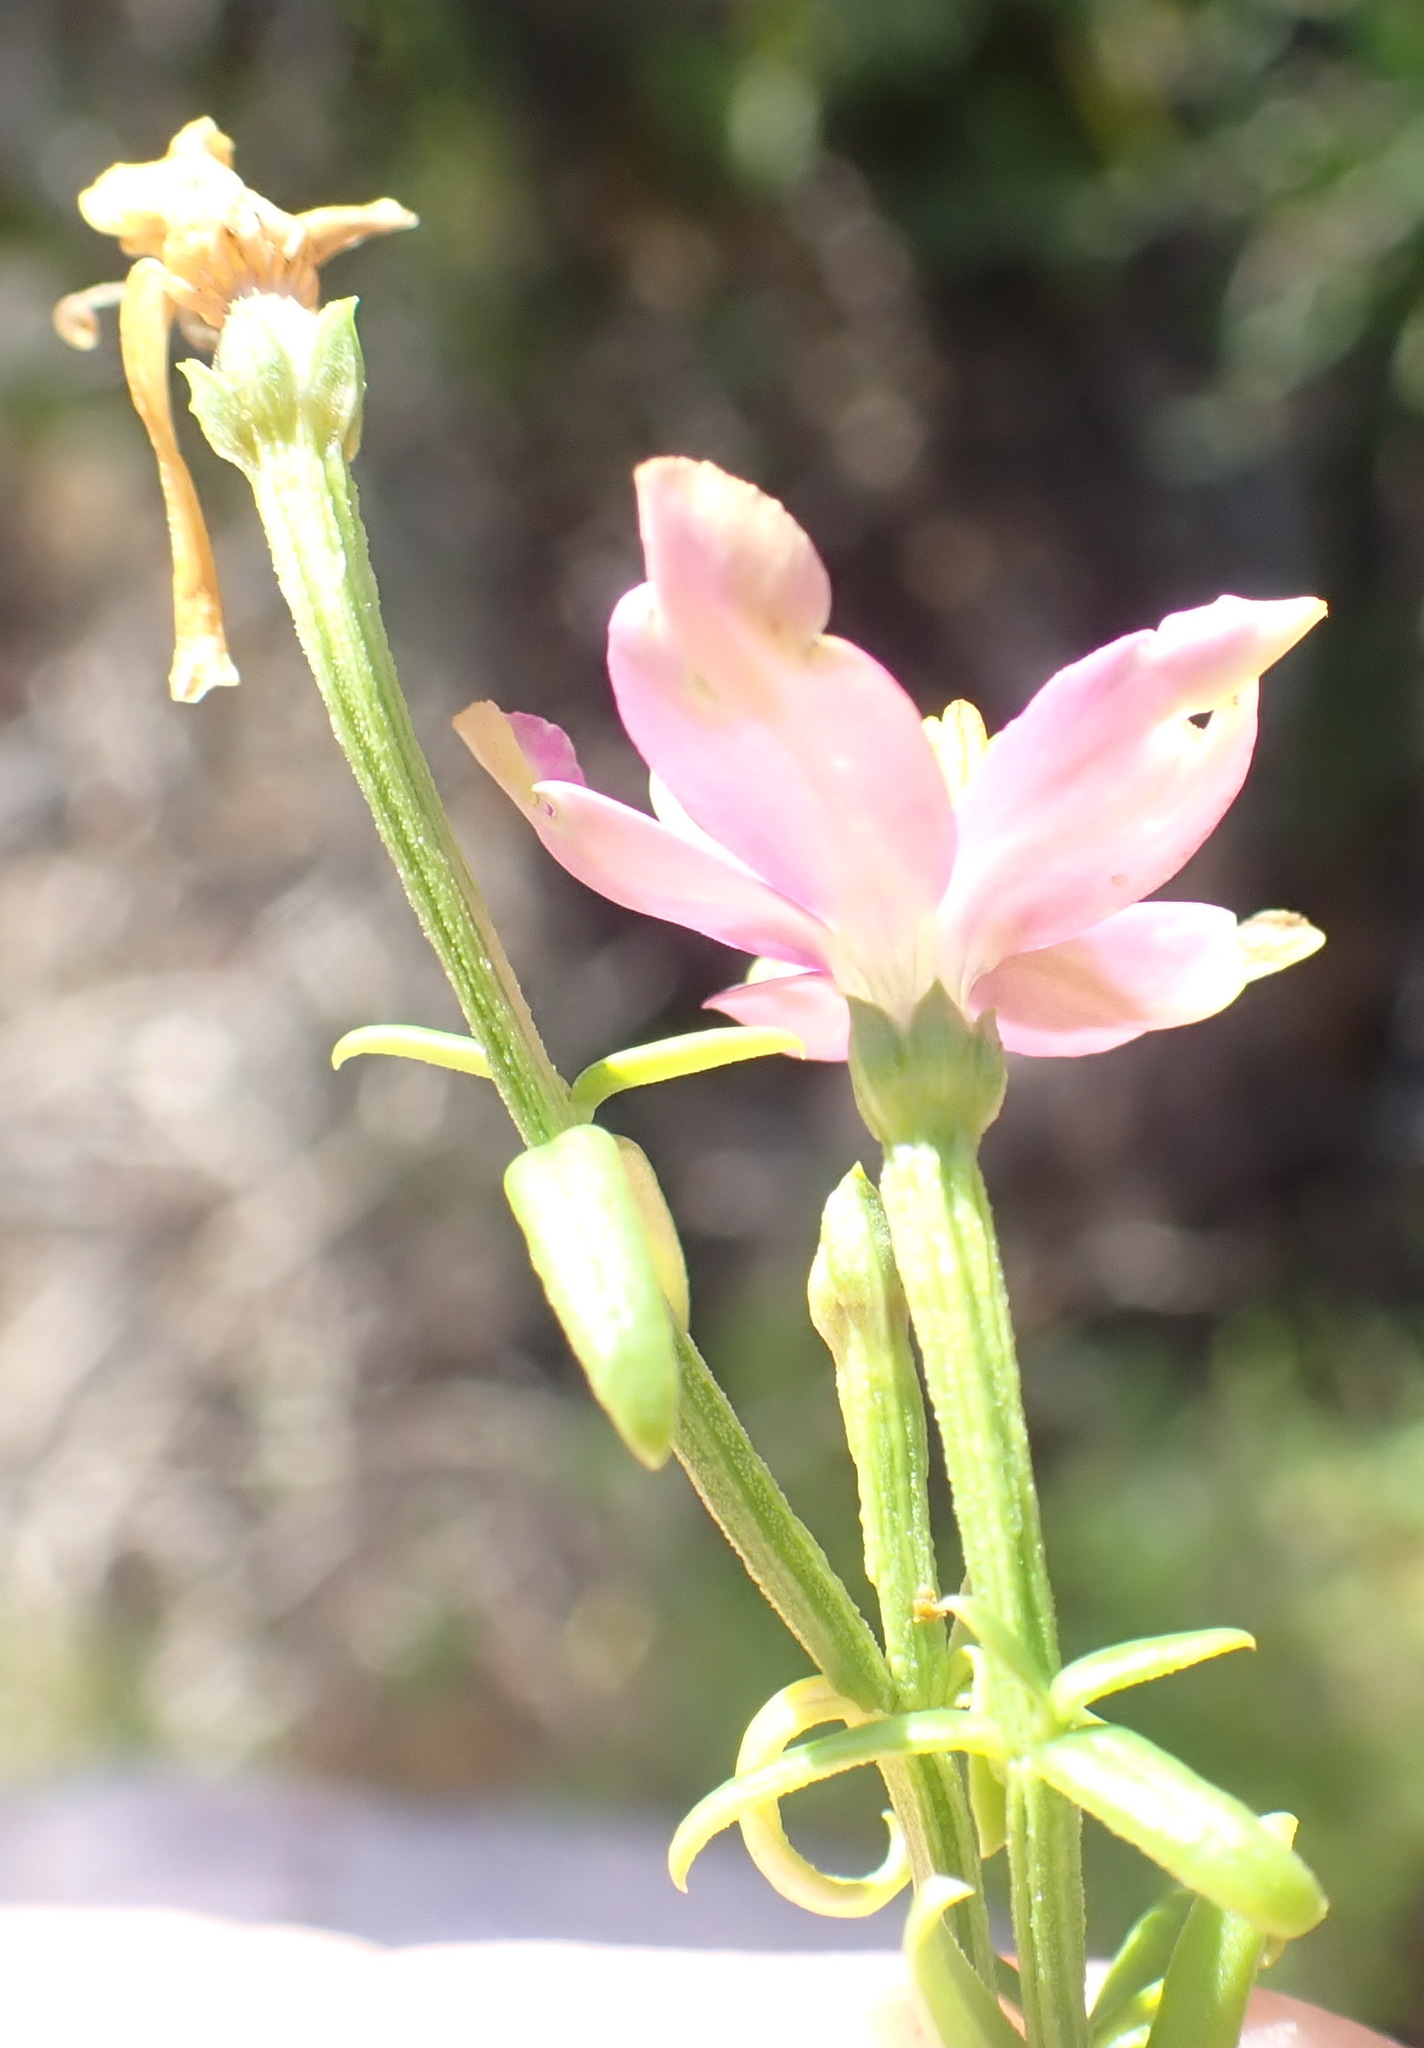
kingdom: Plantae
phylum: Tracheophyta
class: Magnoliopsida
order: Gentianales
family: Gentianaceae
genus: Chironia
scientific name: Chironia baccifera
